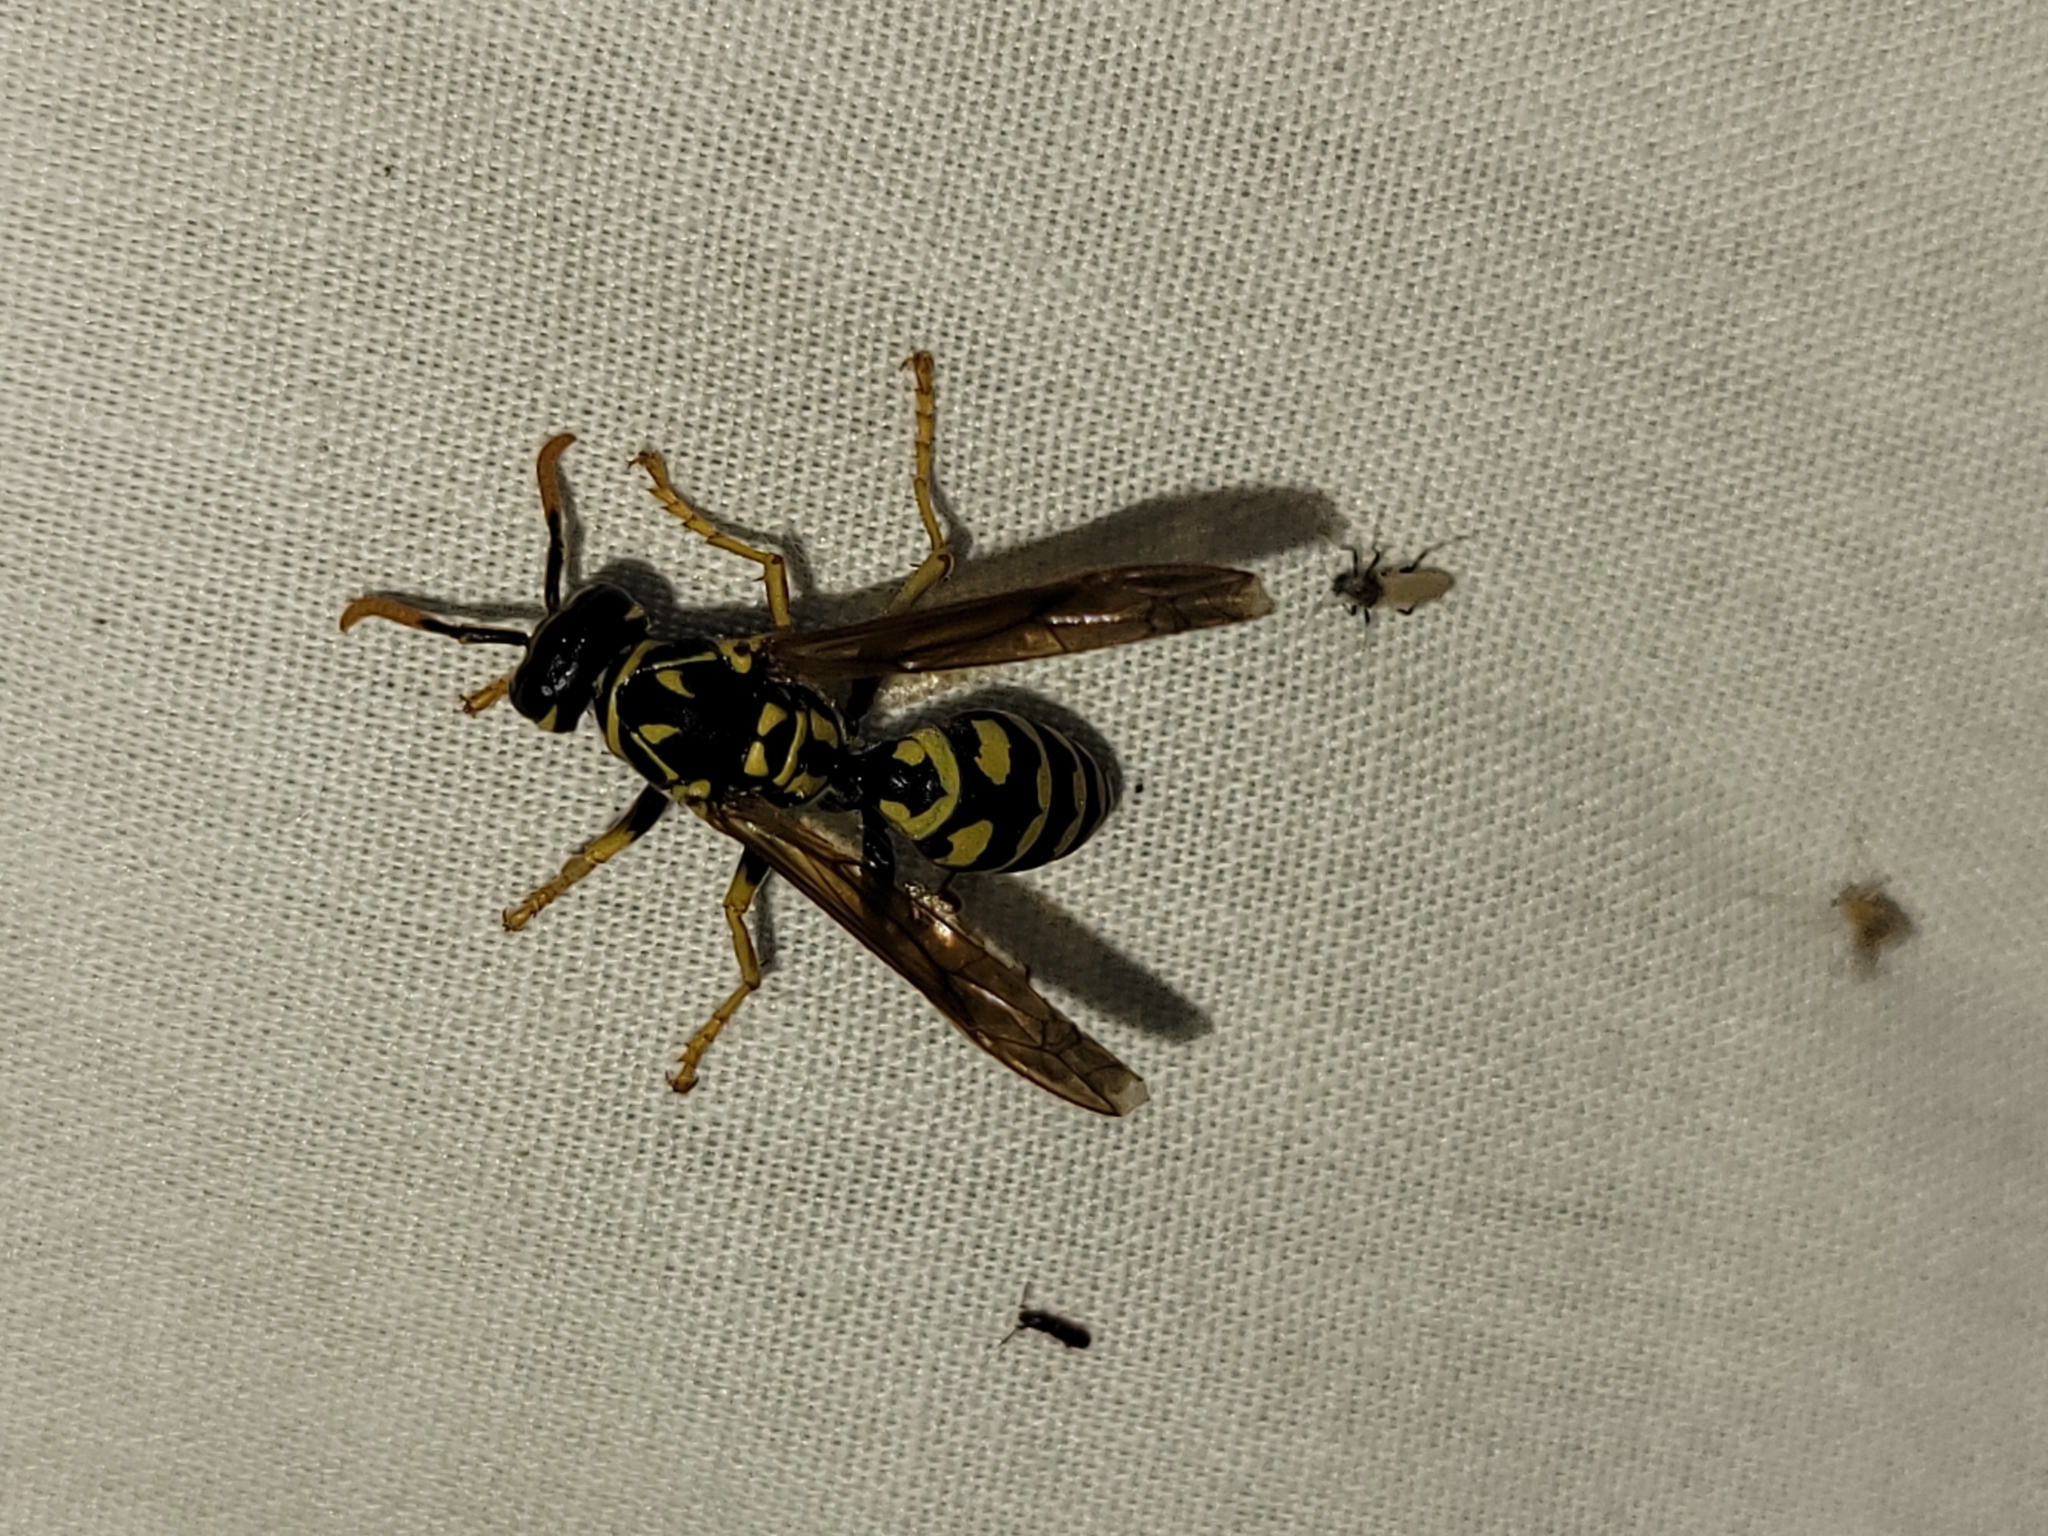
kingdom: Animalia
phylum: Arthropoda
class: Insecta
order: Hymenoptera
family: Eumenidae
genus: Polistes
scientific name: Polistes dominula
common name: Paper wasp
